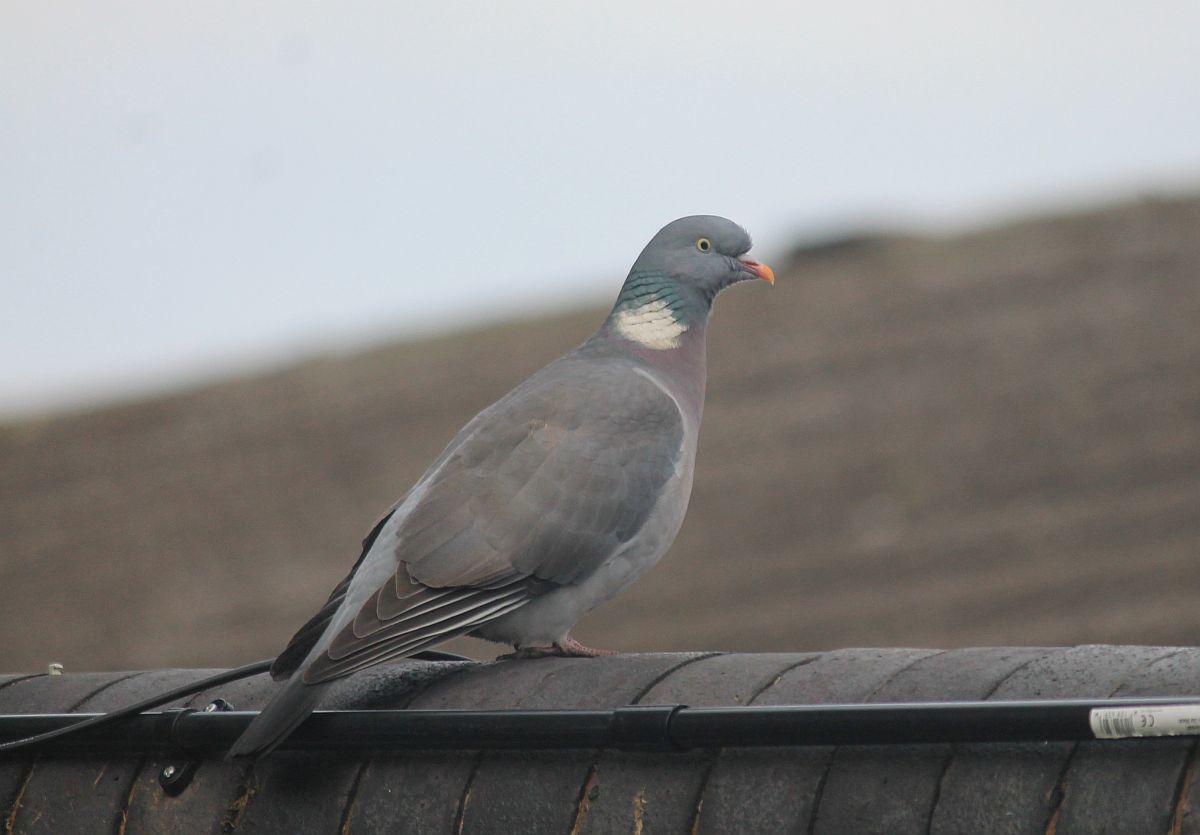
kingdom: Animalia
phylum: Chordata
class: Aves
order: Columbiformes
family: Columbidae
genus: Columba
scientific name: Columba palumbus
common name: Common wood pigeon
